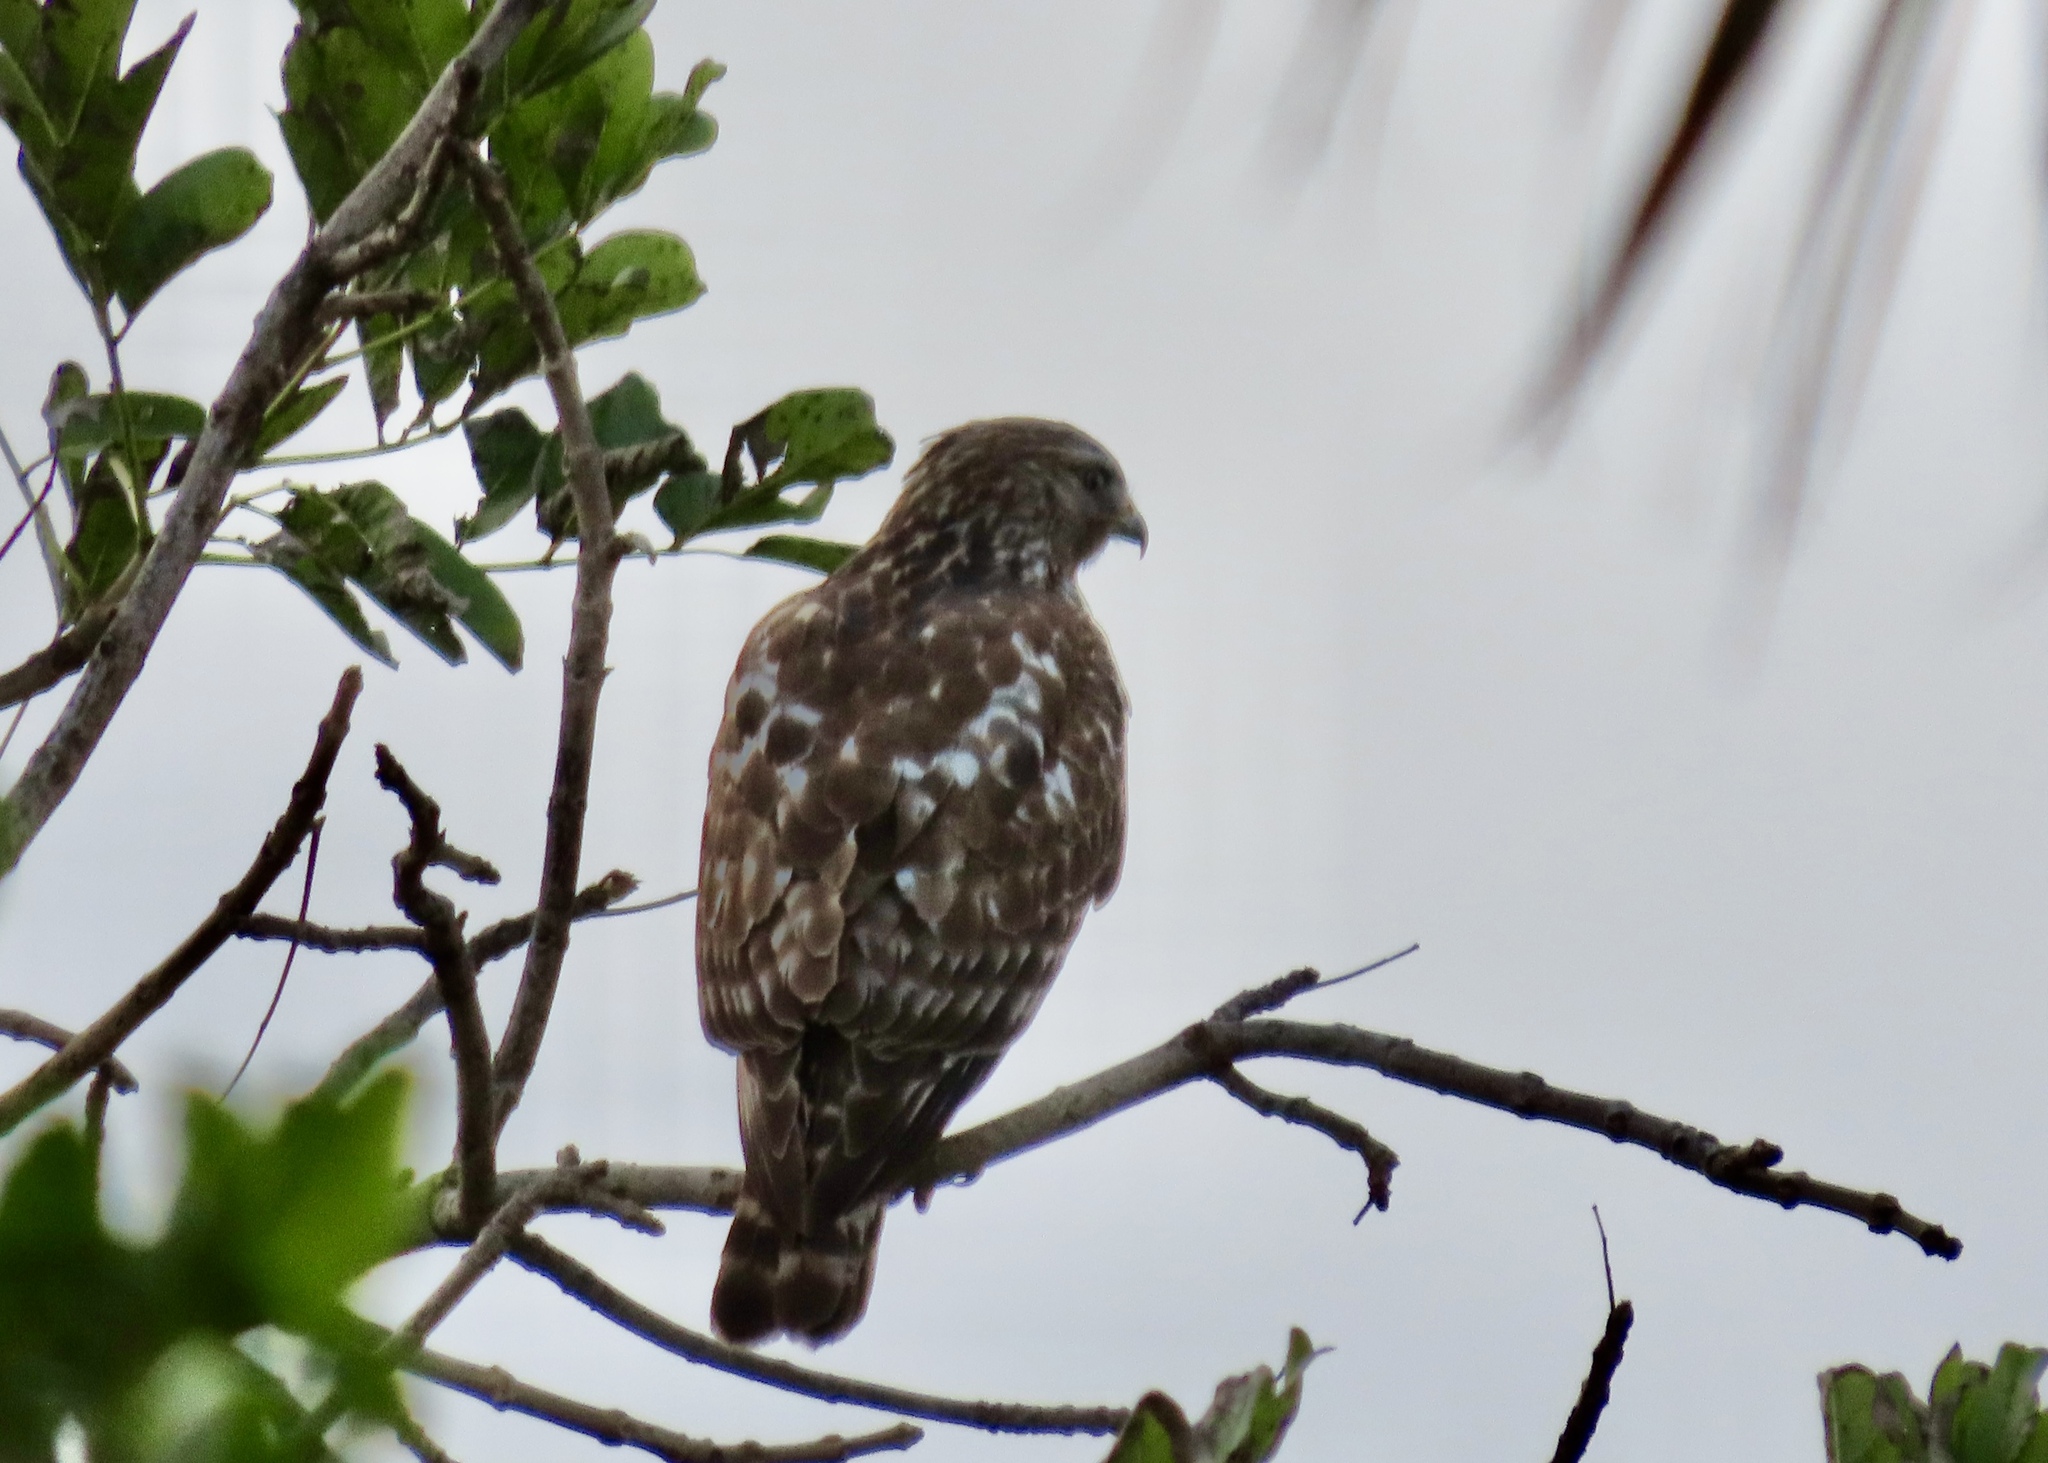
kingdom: Animalia
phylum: Chordata
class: Aves
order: Accipitriformes
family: Accipitridae
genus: Buteo
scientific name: Buteo lineatus
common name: Red-shouldered hawk
